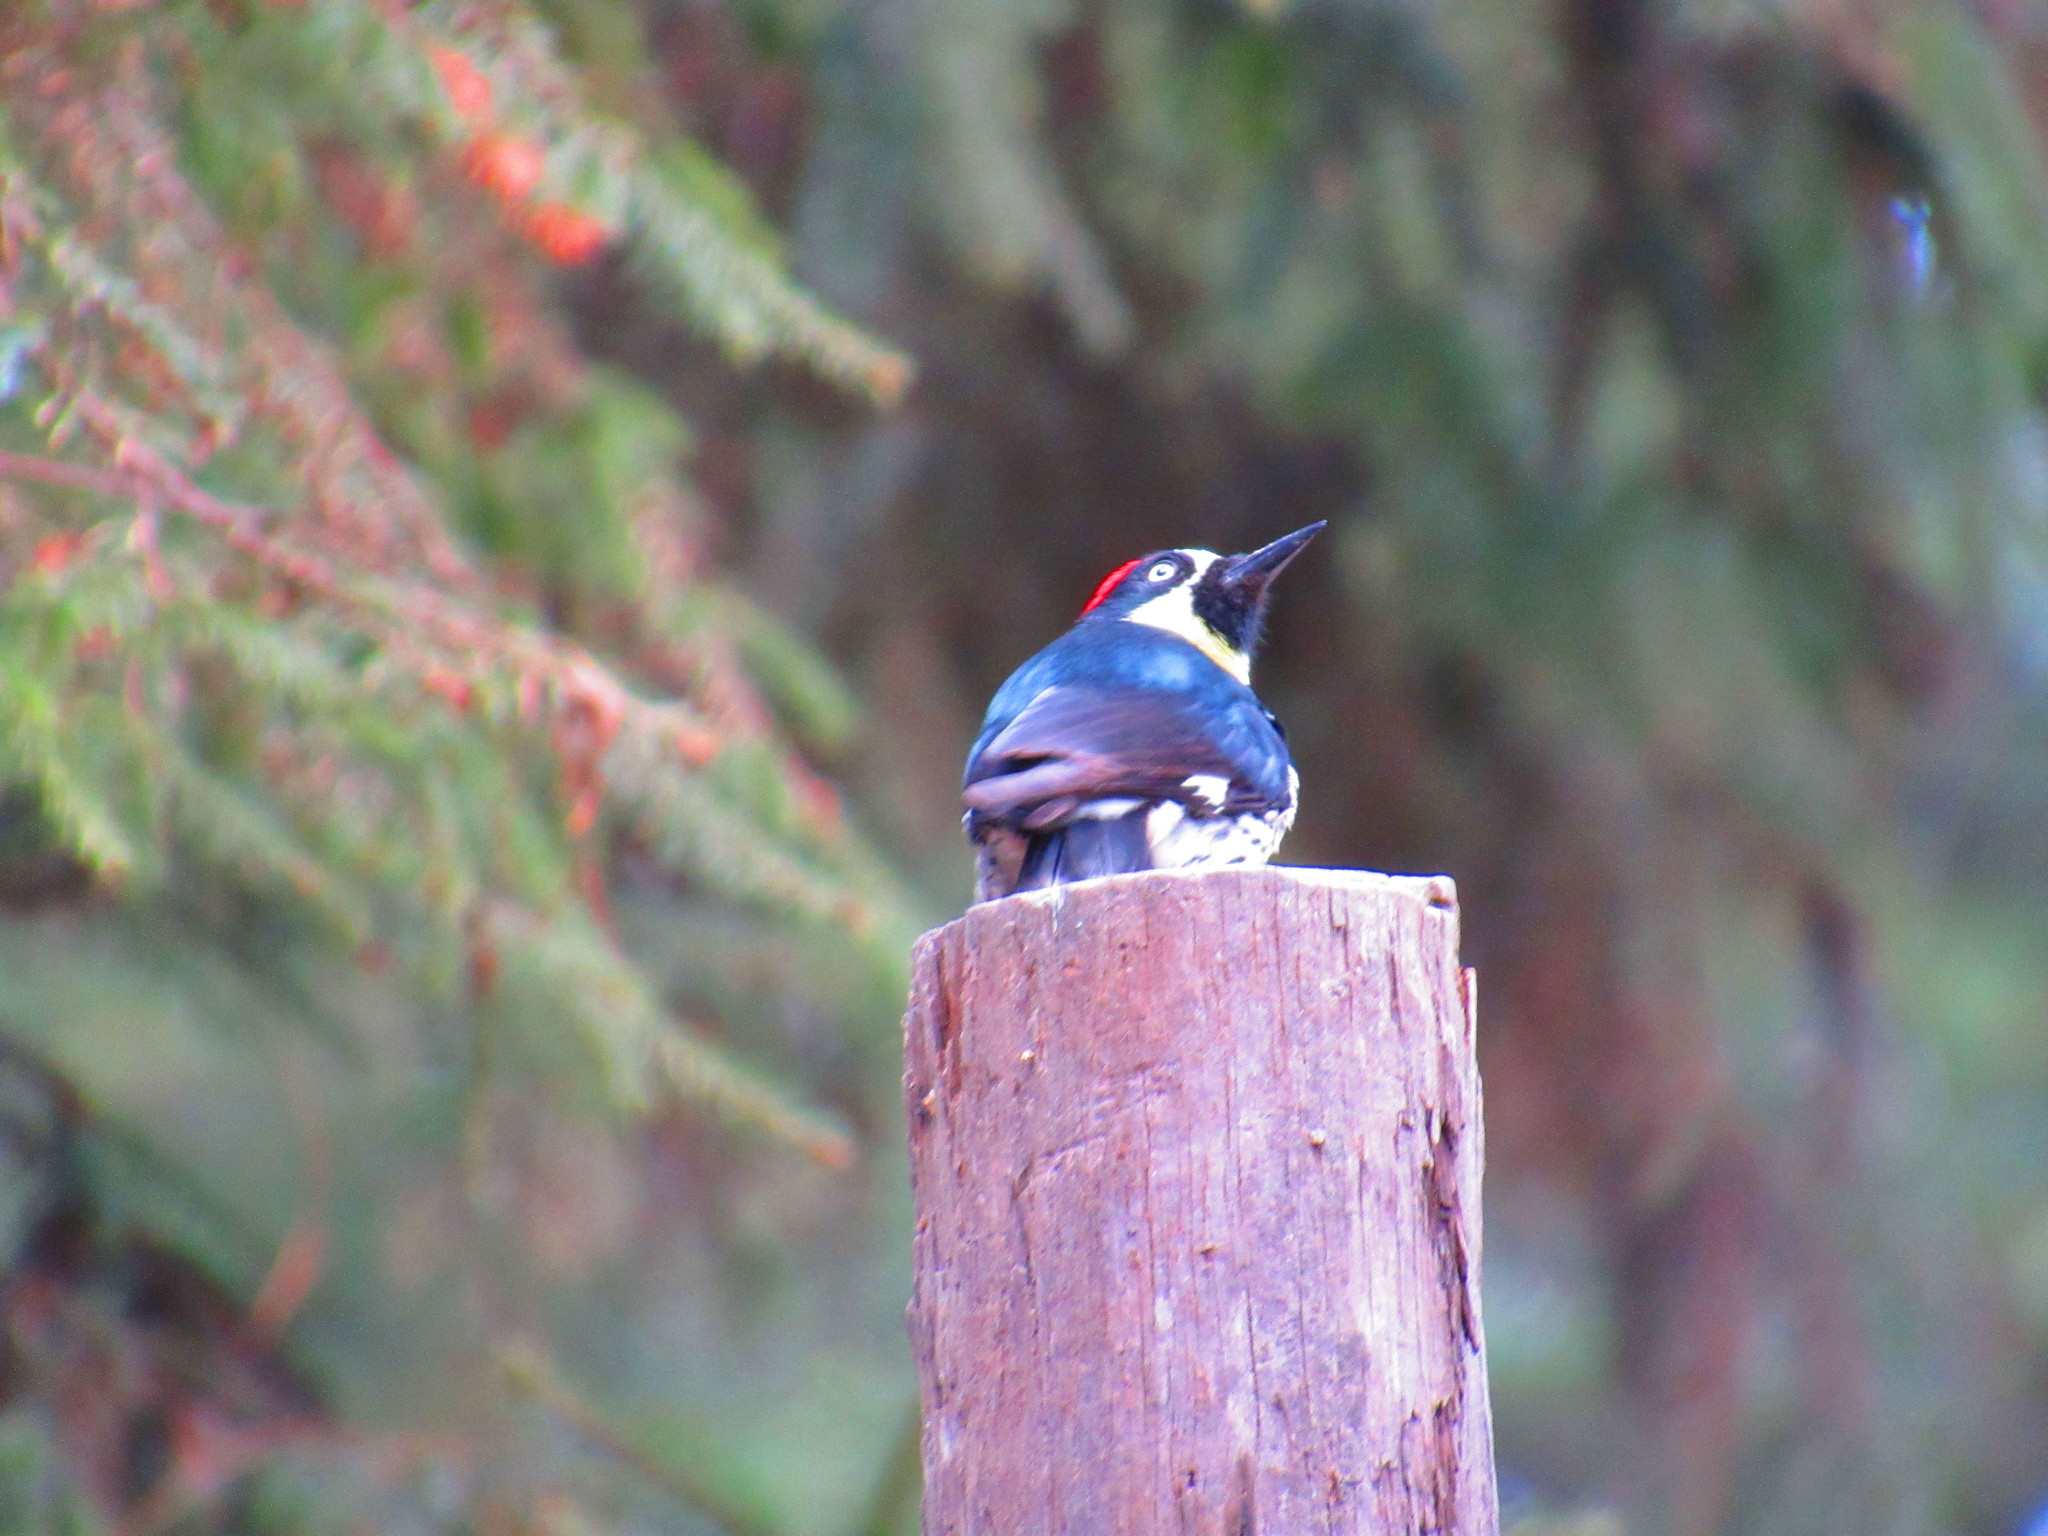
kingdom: Animalia
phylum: Chordata
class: Aves
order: Piciformes
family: Picidae
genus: Melanerpes
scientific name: Melanerpes formicivorus
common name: Acorn woodpecker
